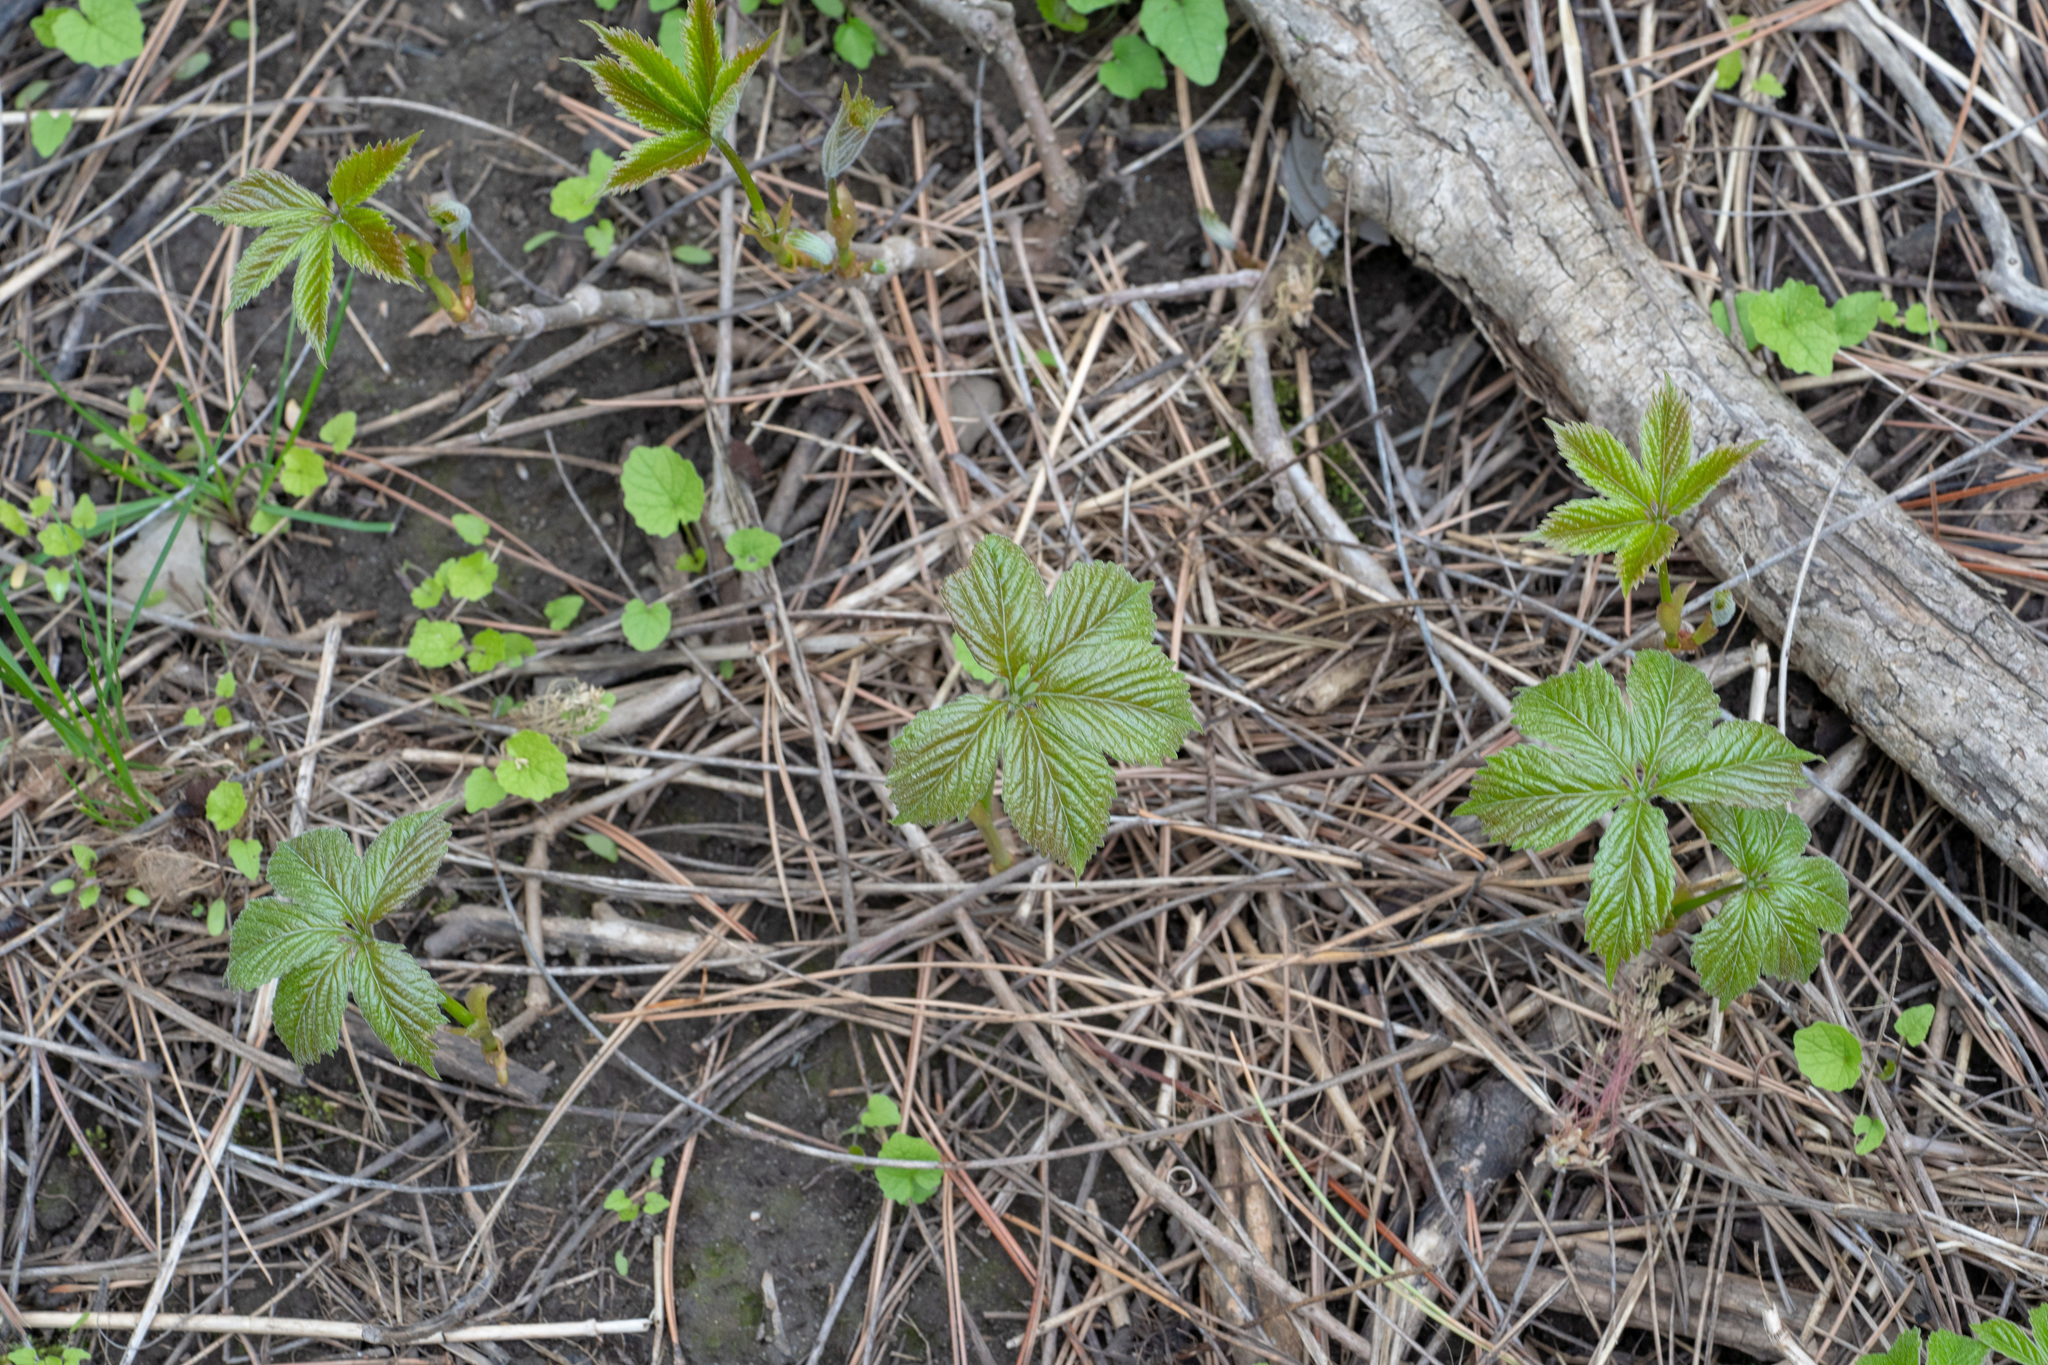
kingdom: Plantae
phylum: Tracheophyta
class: Magnoliopsida
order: Vitales
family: Vitaceae
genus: Parthenocissus
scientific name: Parthenocissus quinquefolia
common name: Virginia-creeper
